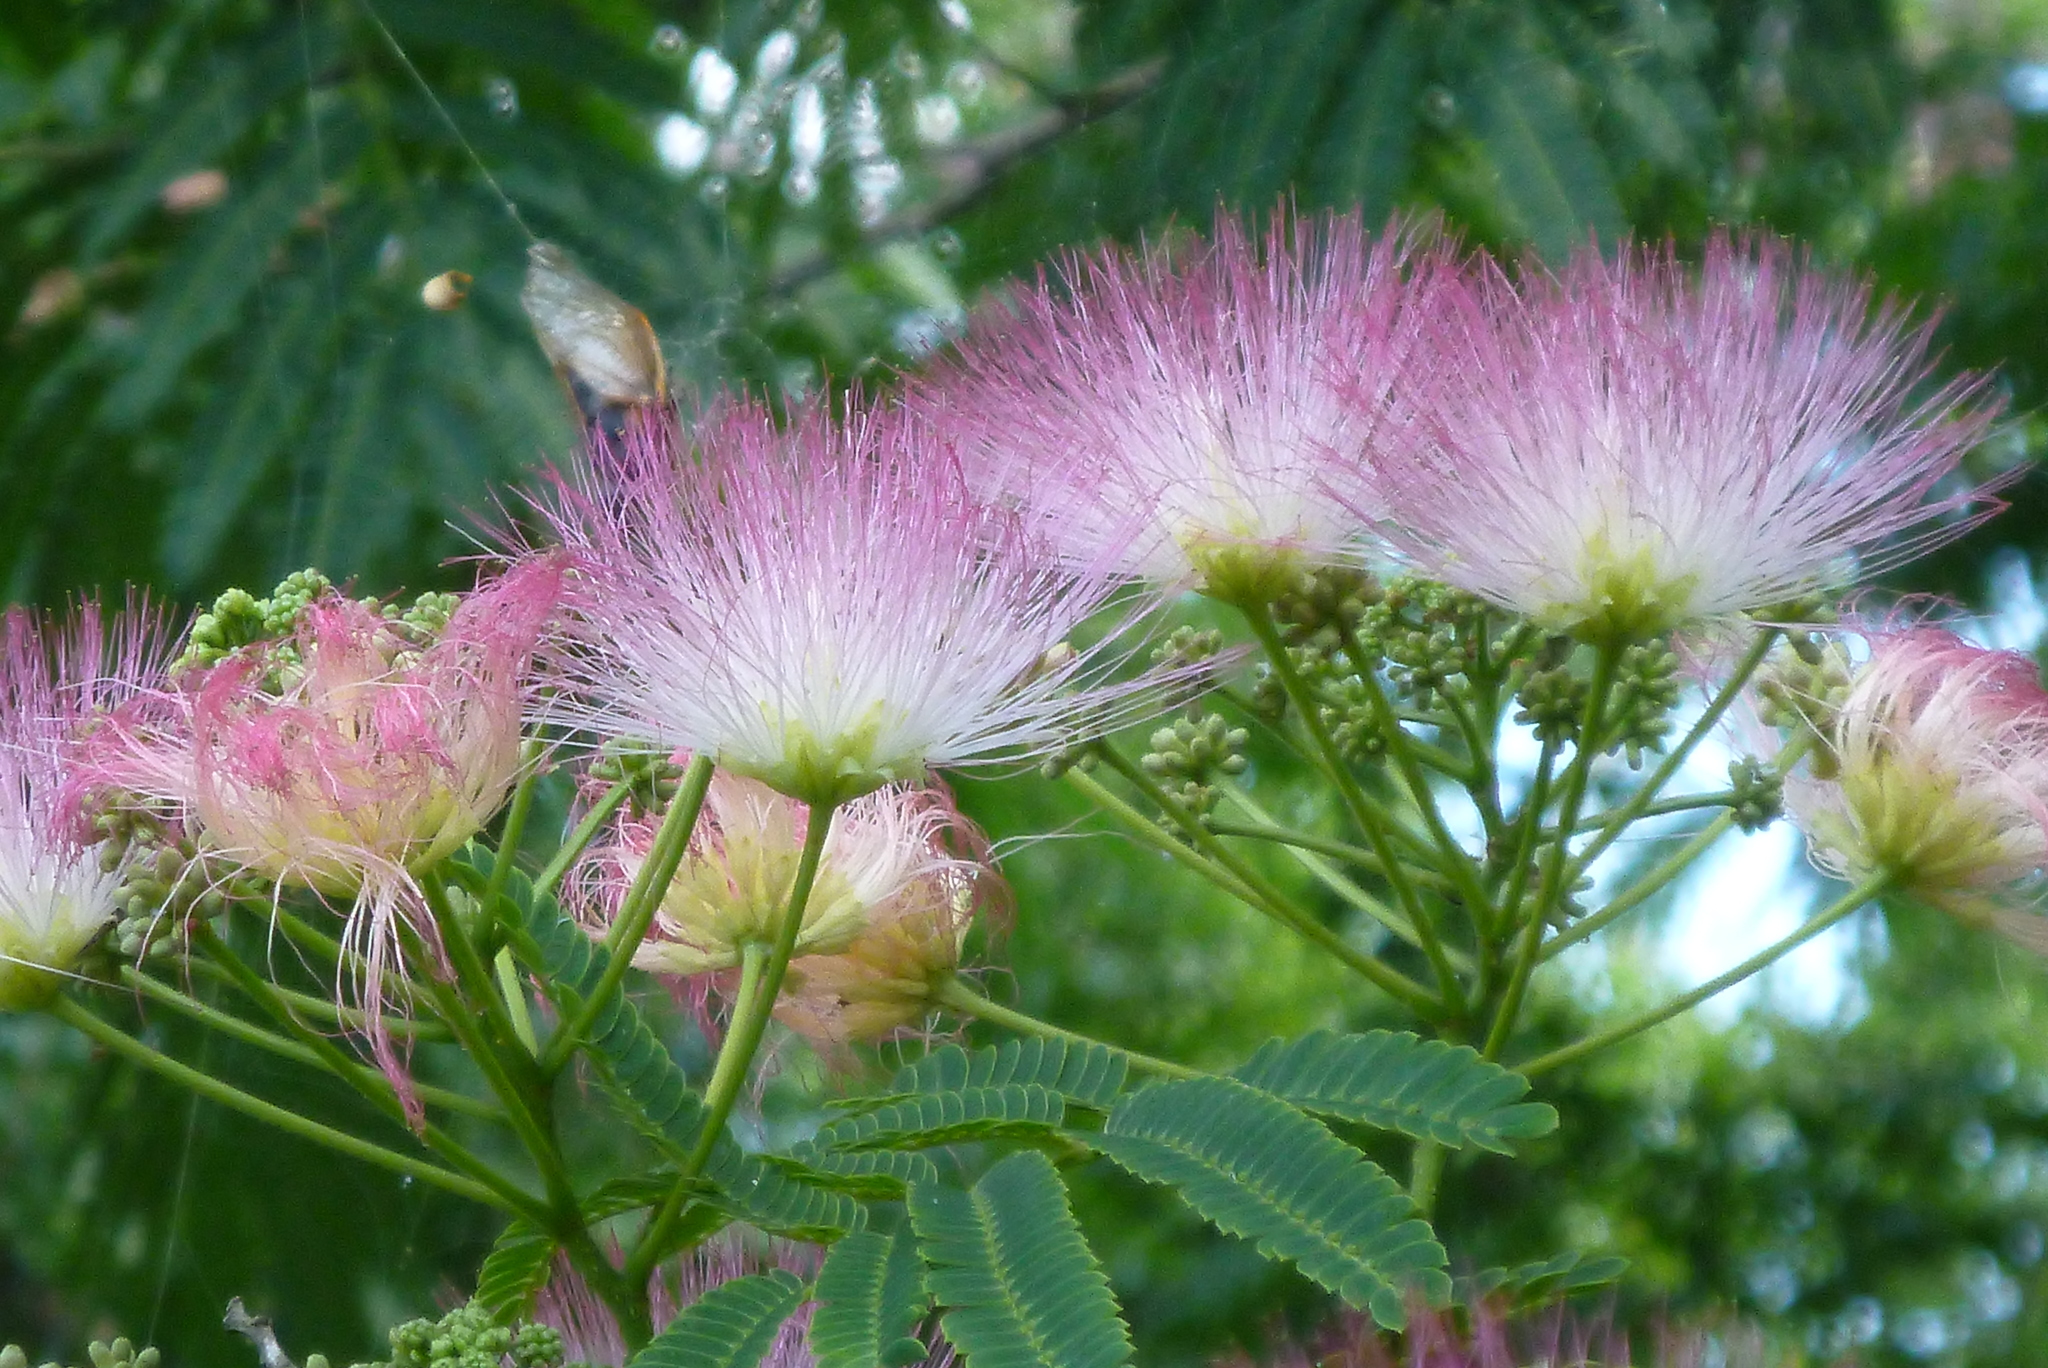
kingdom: Plantae
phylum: Tracheophyta
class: Magnoliopsida
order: Fabales
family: Fabaceae
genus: Albizia
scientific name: Albizia julibrissin
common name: Silktree
